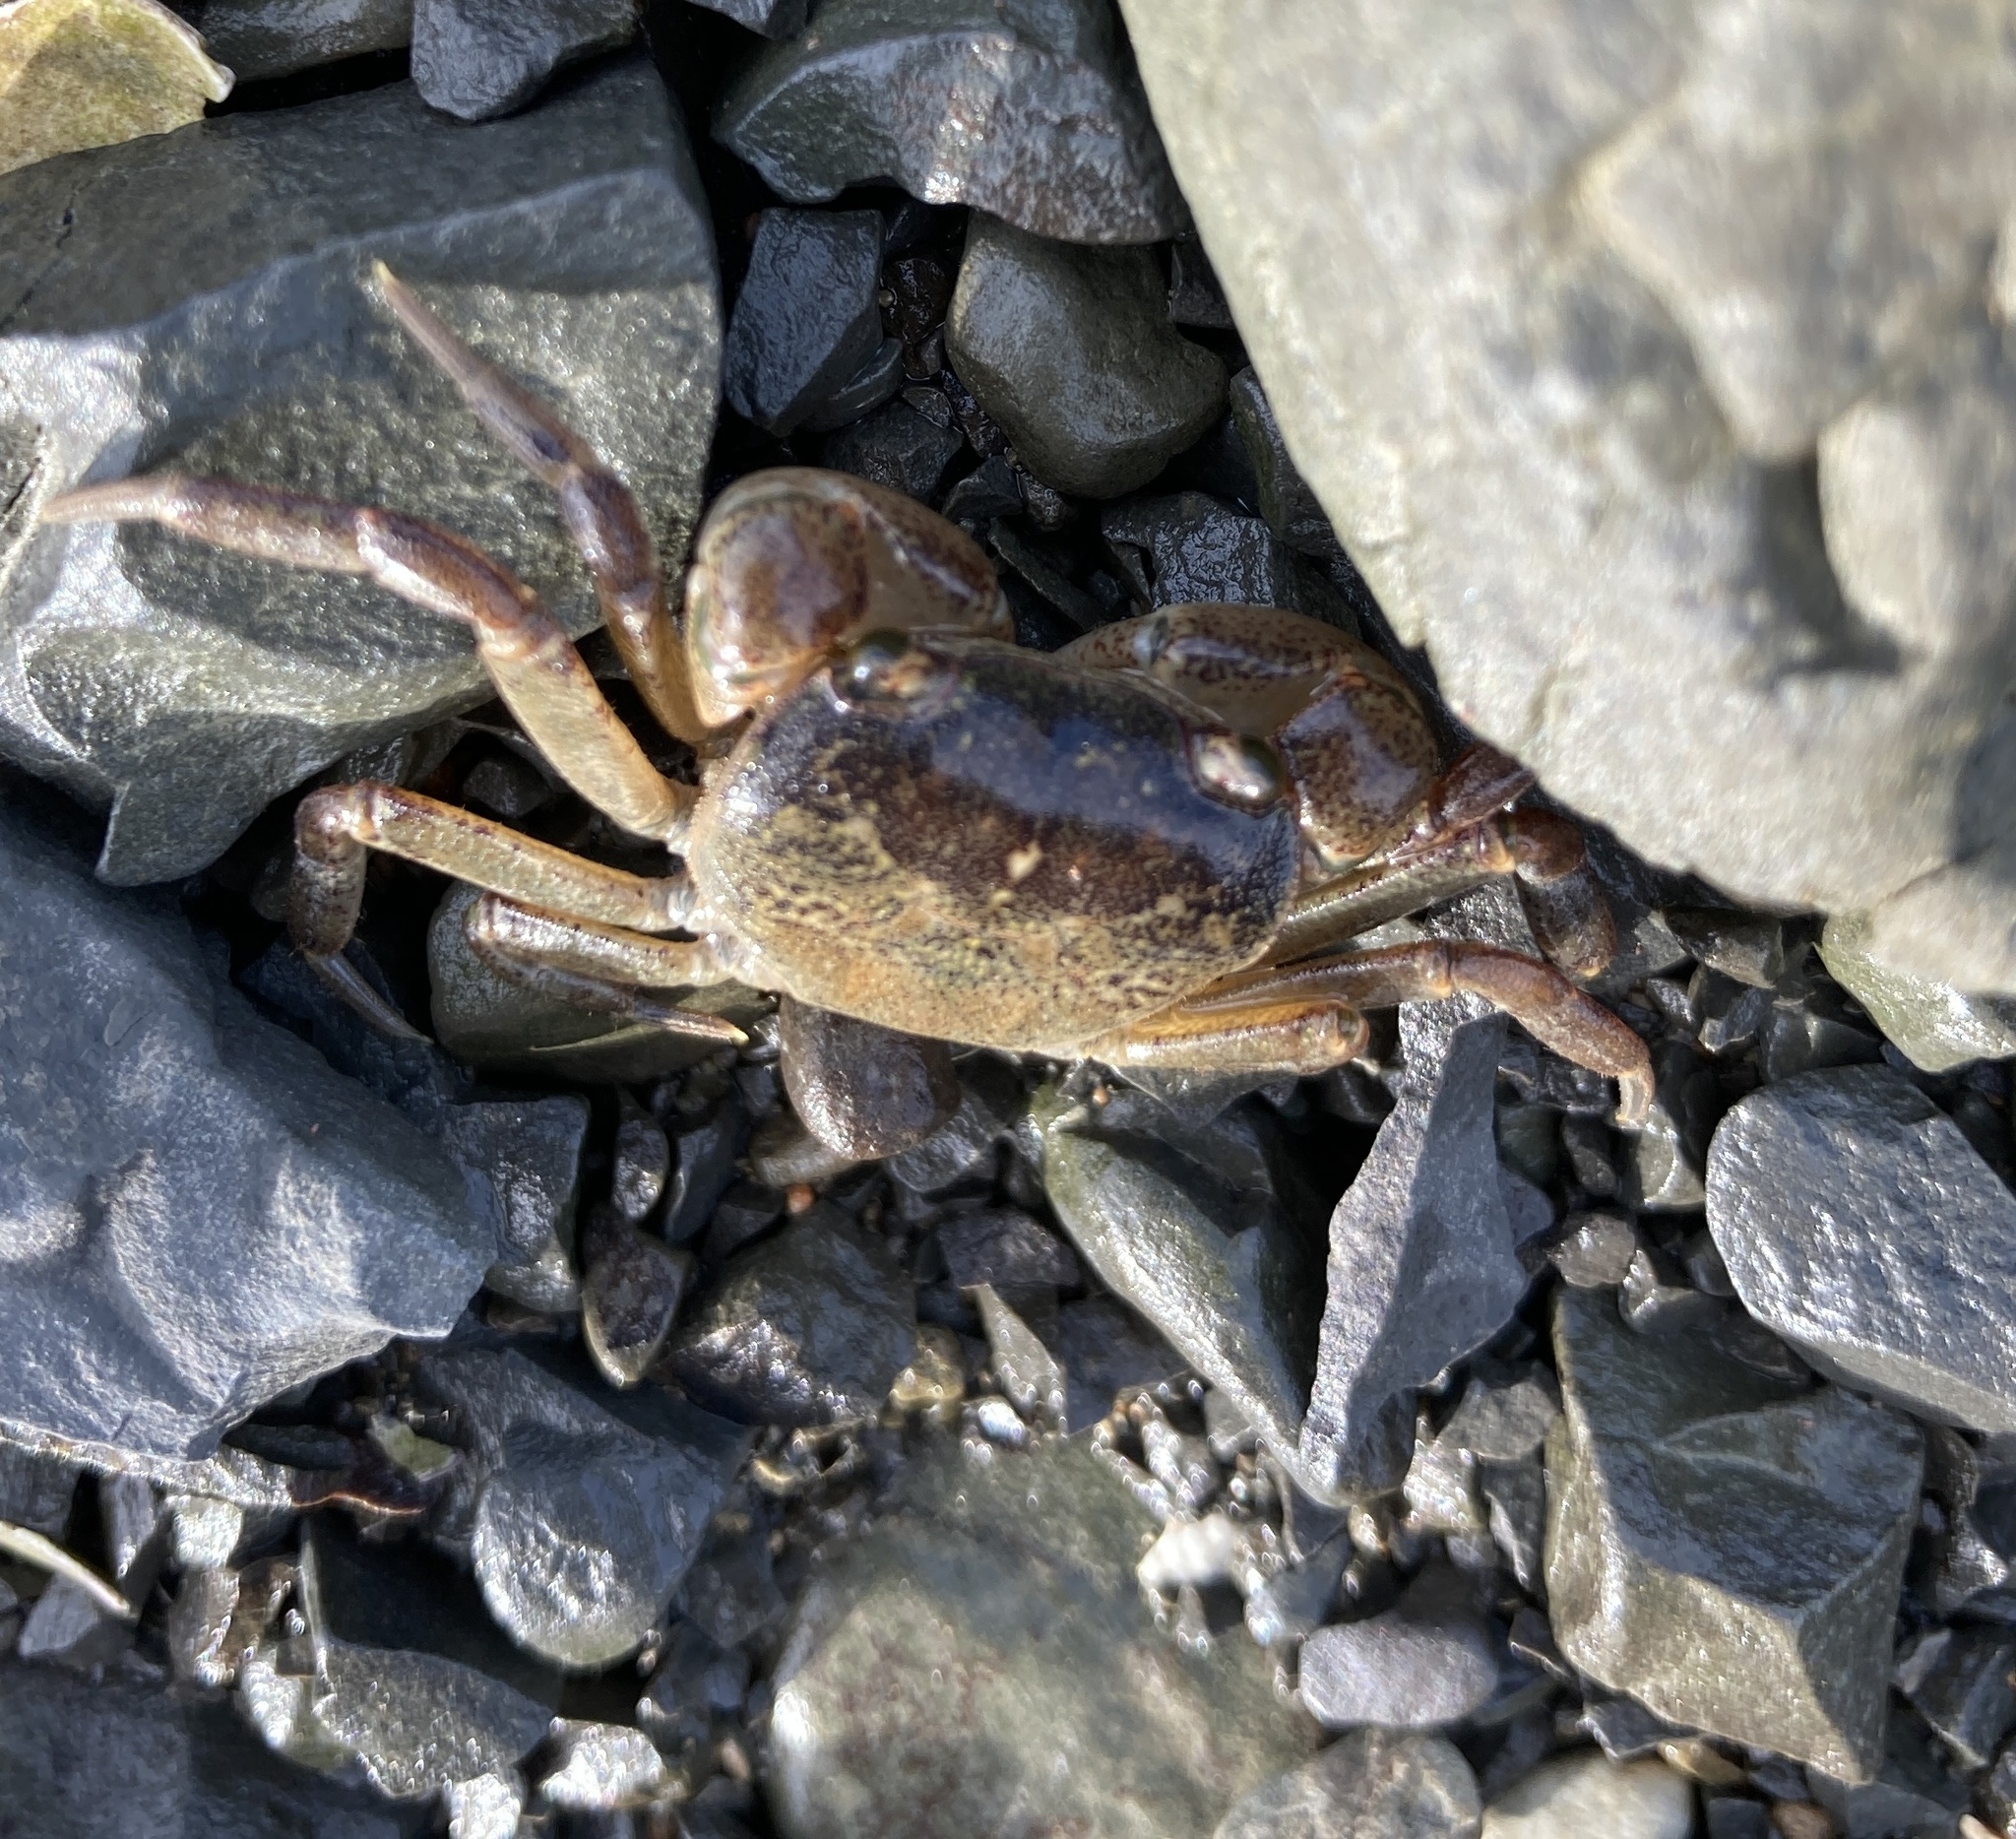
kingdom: Animalia
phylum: Arthropoda
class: Malacostraca
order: Decapoda
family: Varunidae
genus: Cyclograpsus
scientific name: Cyclograpsus lavauxi
